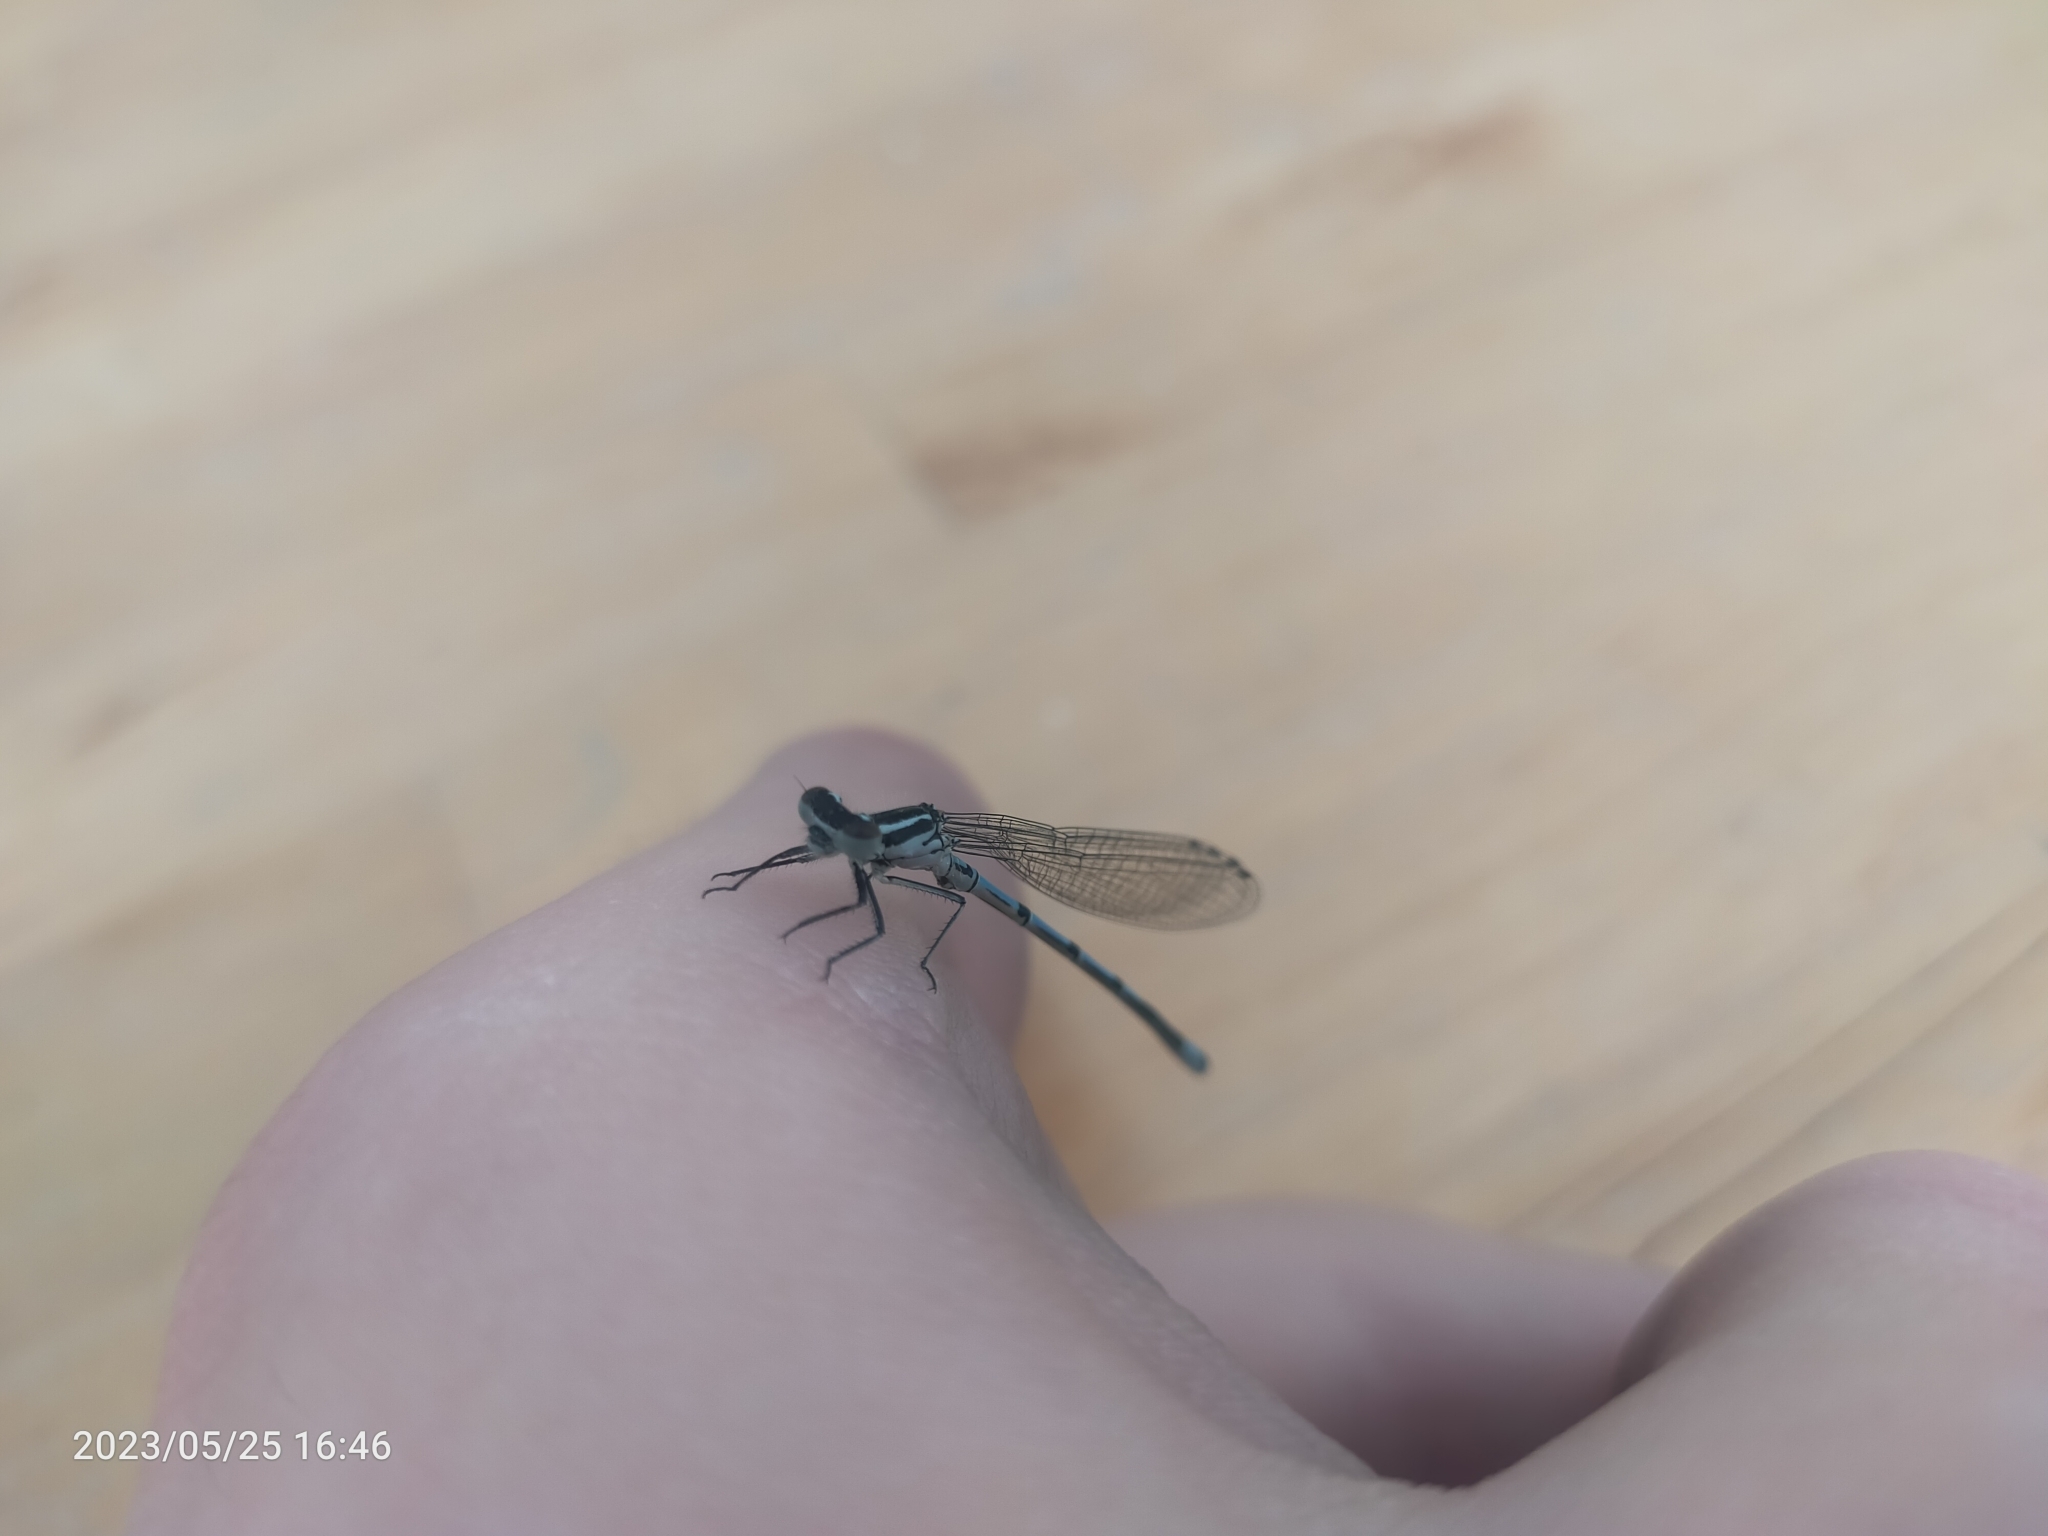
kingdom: Animalia
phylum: Arthropoda
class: Insecta
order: Odonata
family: Coenagrionidae
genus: Coenagrion
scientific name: Coenagrion puella
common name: Azure damselfly
